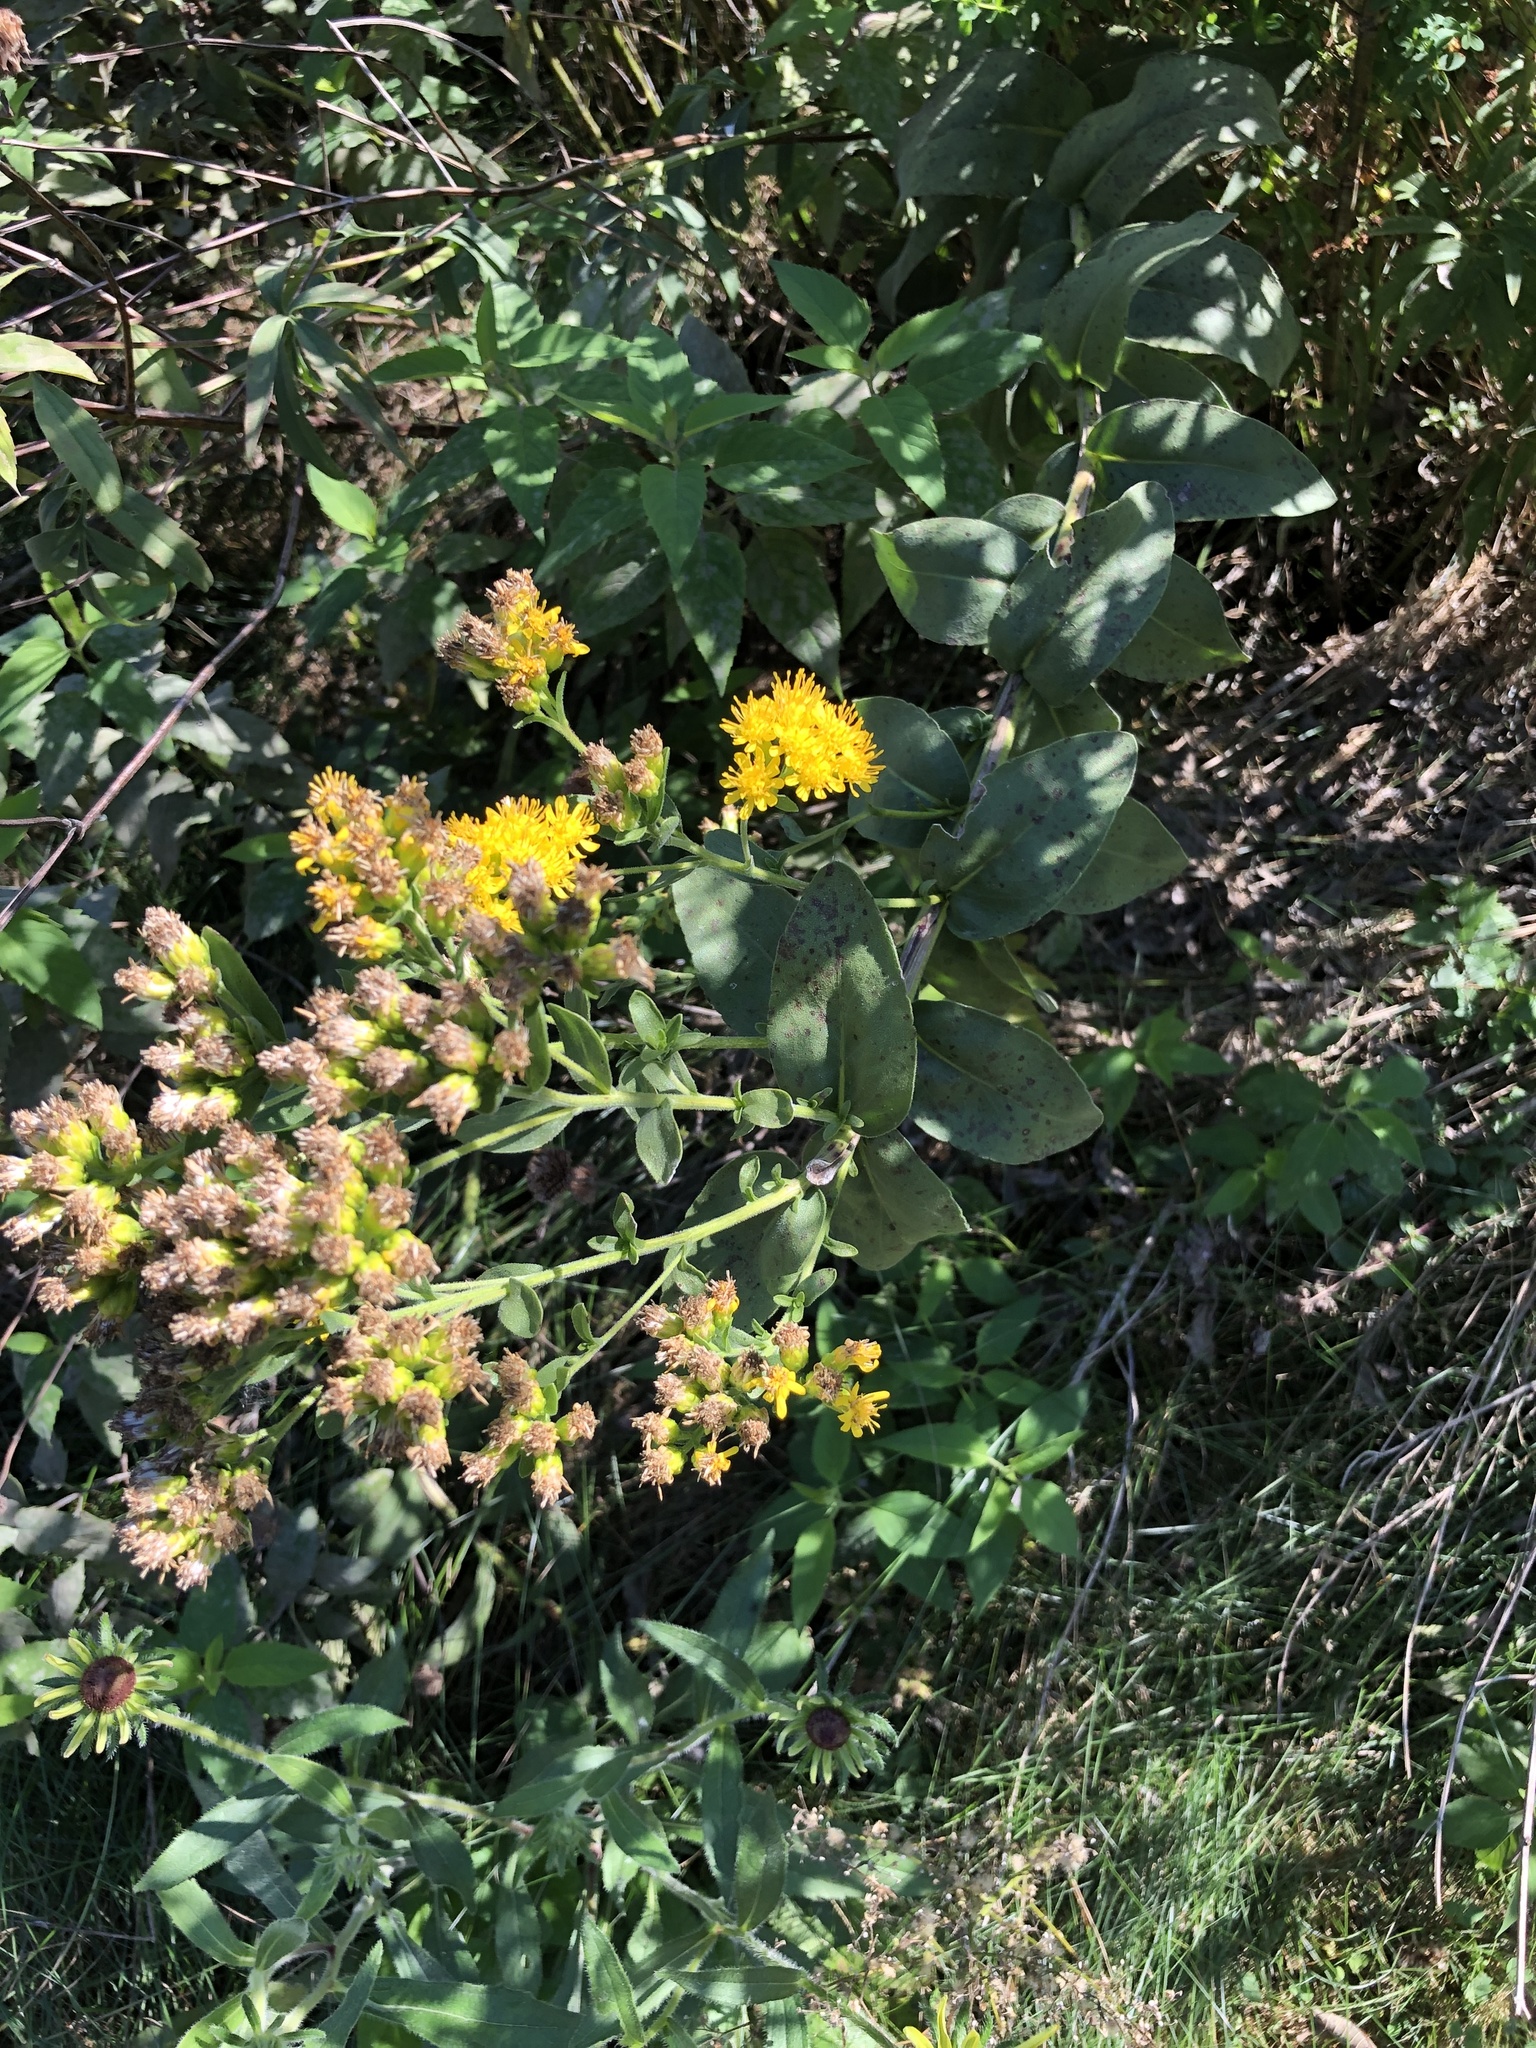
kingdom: Plantae
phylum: Tracheophyta
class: Magnoliopsida
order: Asterales
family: Asteraceae
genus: Solidago
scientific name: Solidago rigida
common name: Rigid goldenrod
